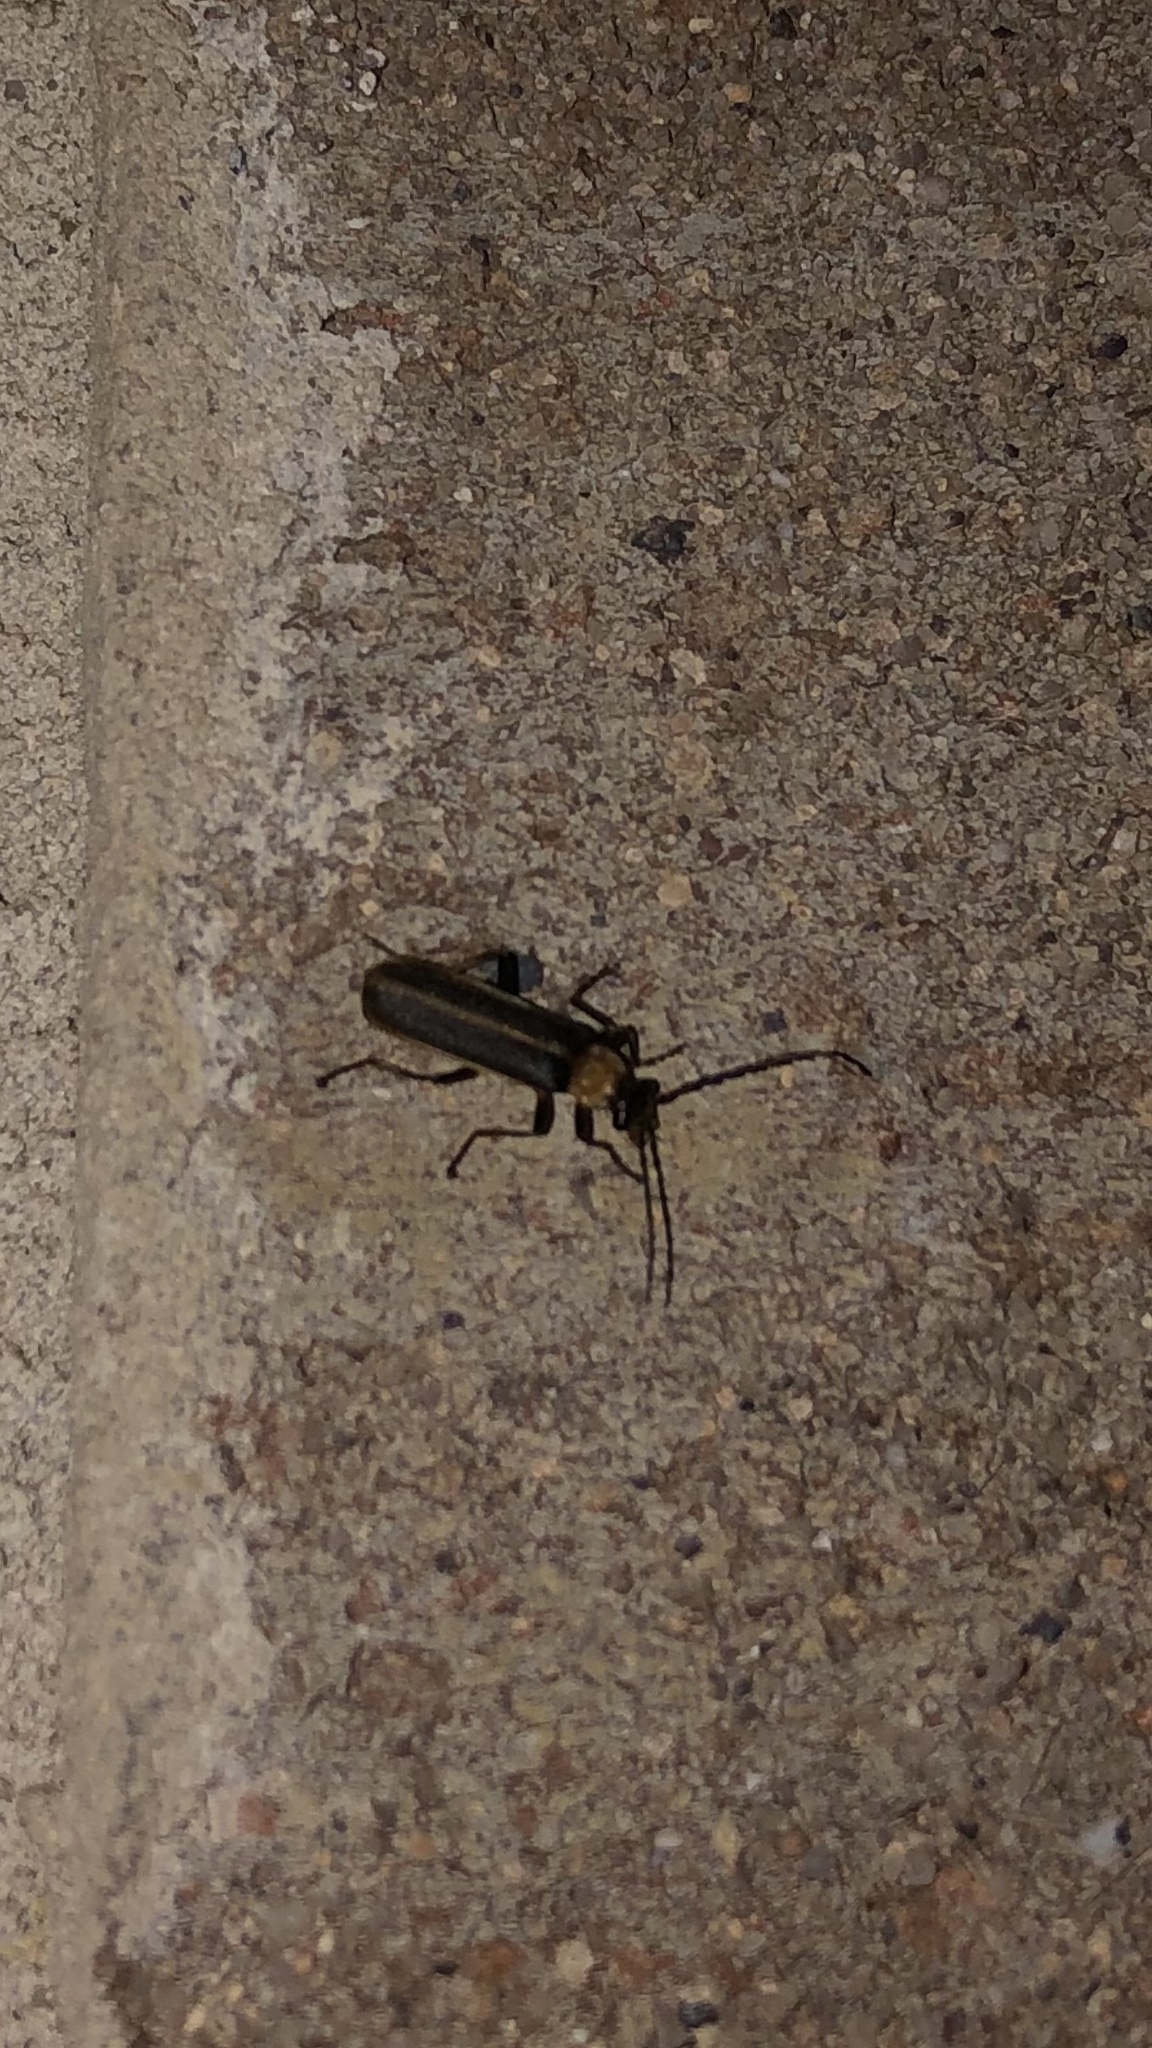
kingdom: Animalia
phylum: Arthropoda
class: Insecta
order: Coleoptera
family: Cantharidae
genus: Podabrus
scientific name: Podabrus flavicollis
